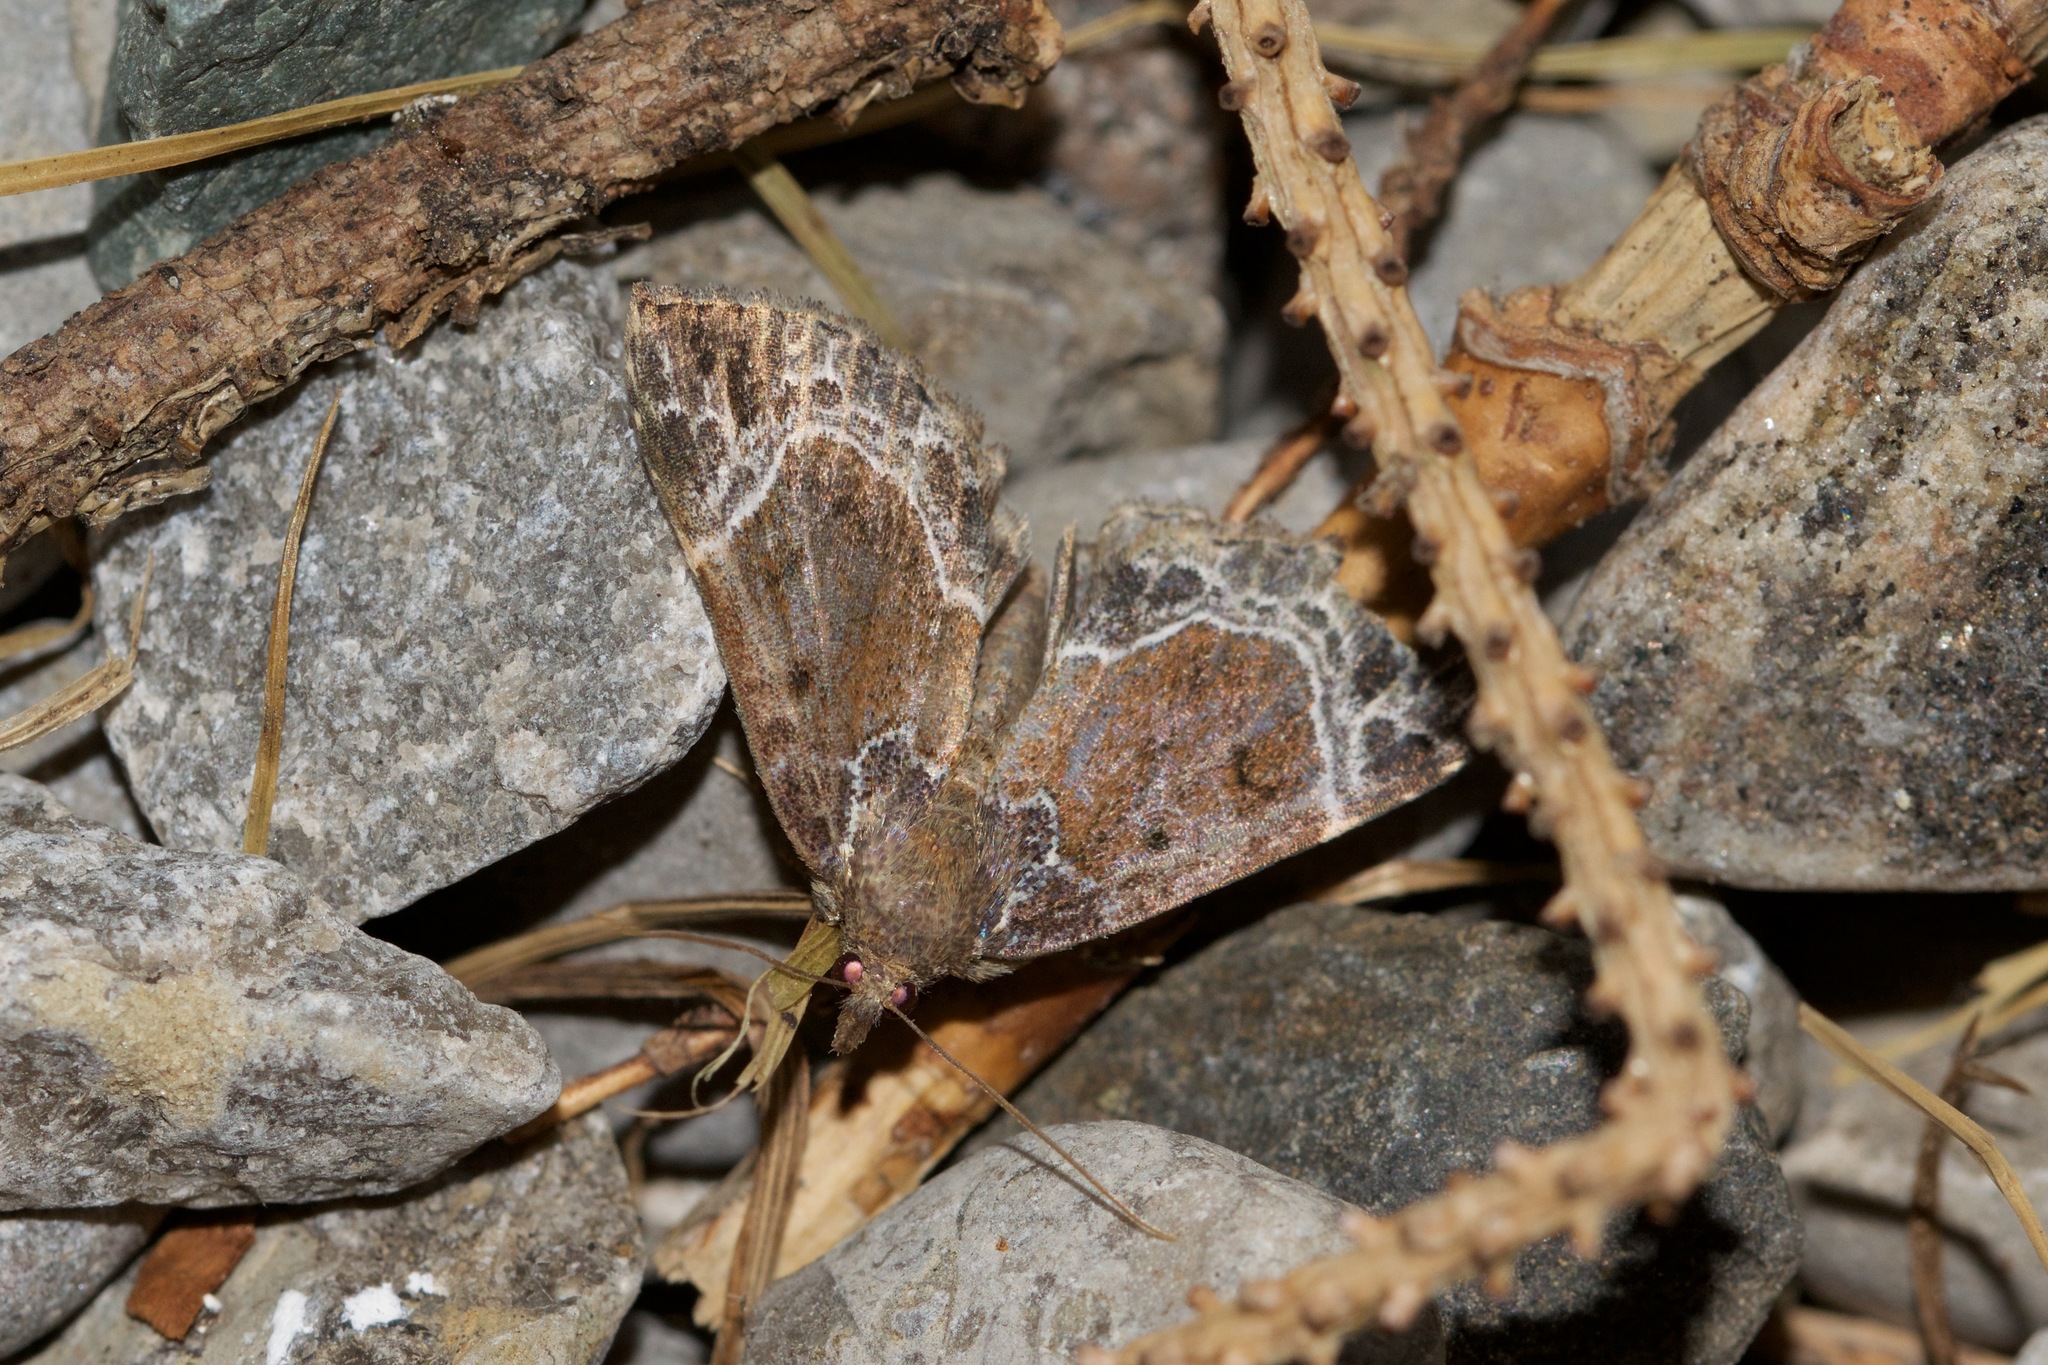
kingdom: Animalia
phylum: Arthropoda
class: Insecta
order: Lepidoptera
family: Erebidae
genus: Hypena
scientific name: Hypena abalienalis
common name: White-lined snout
